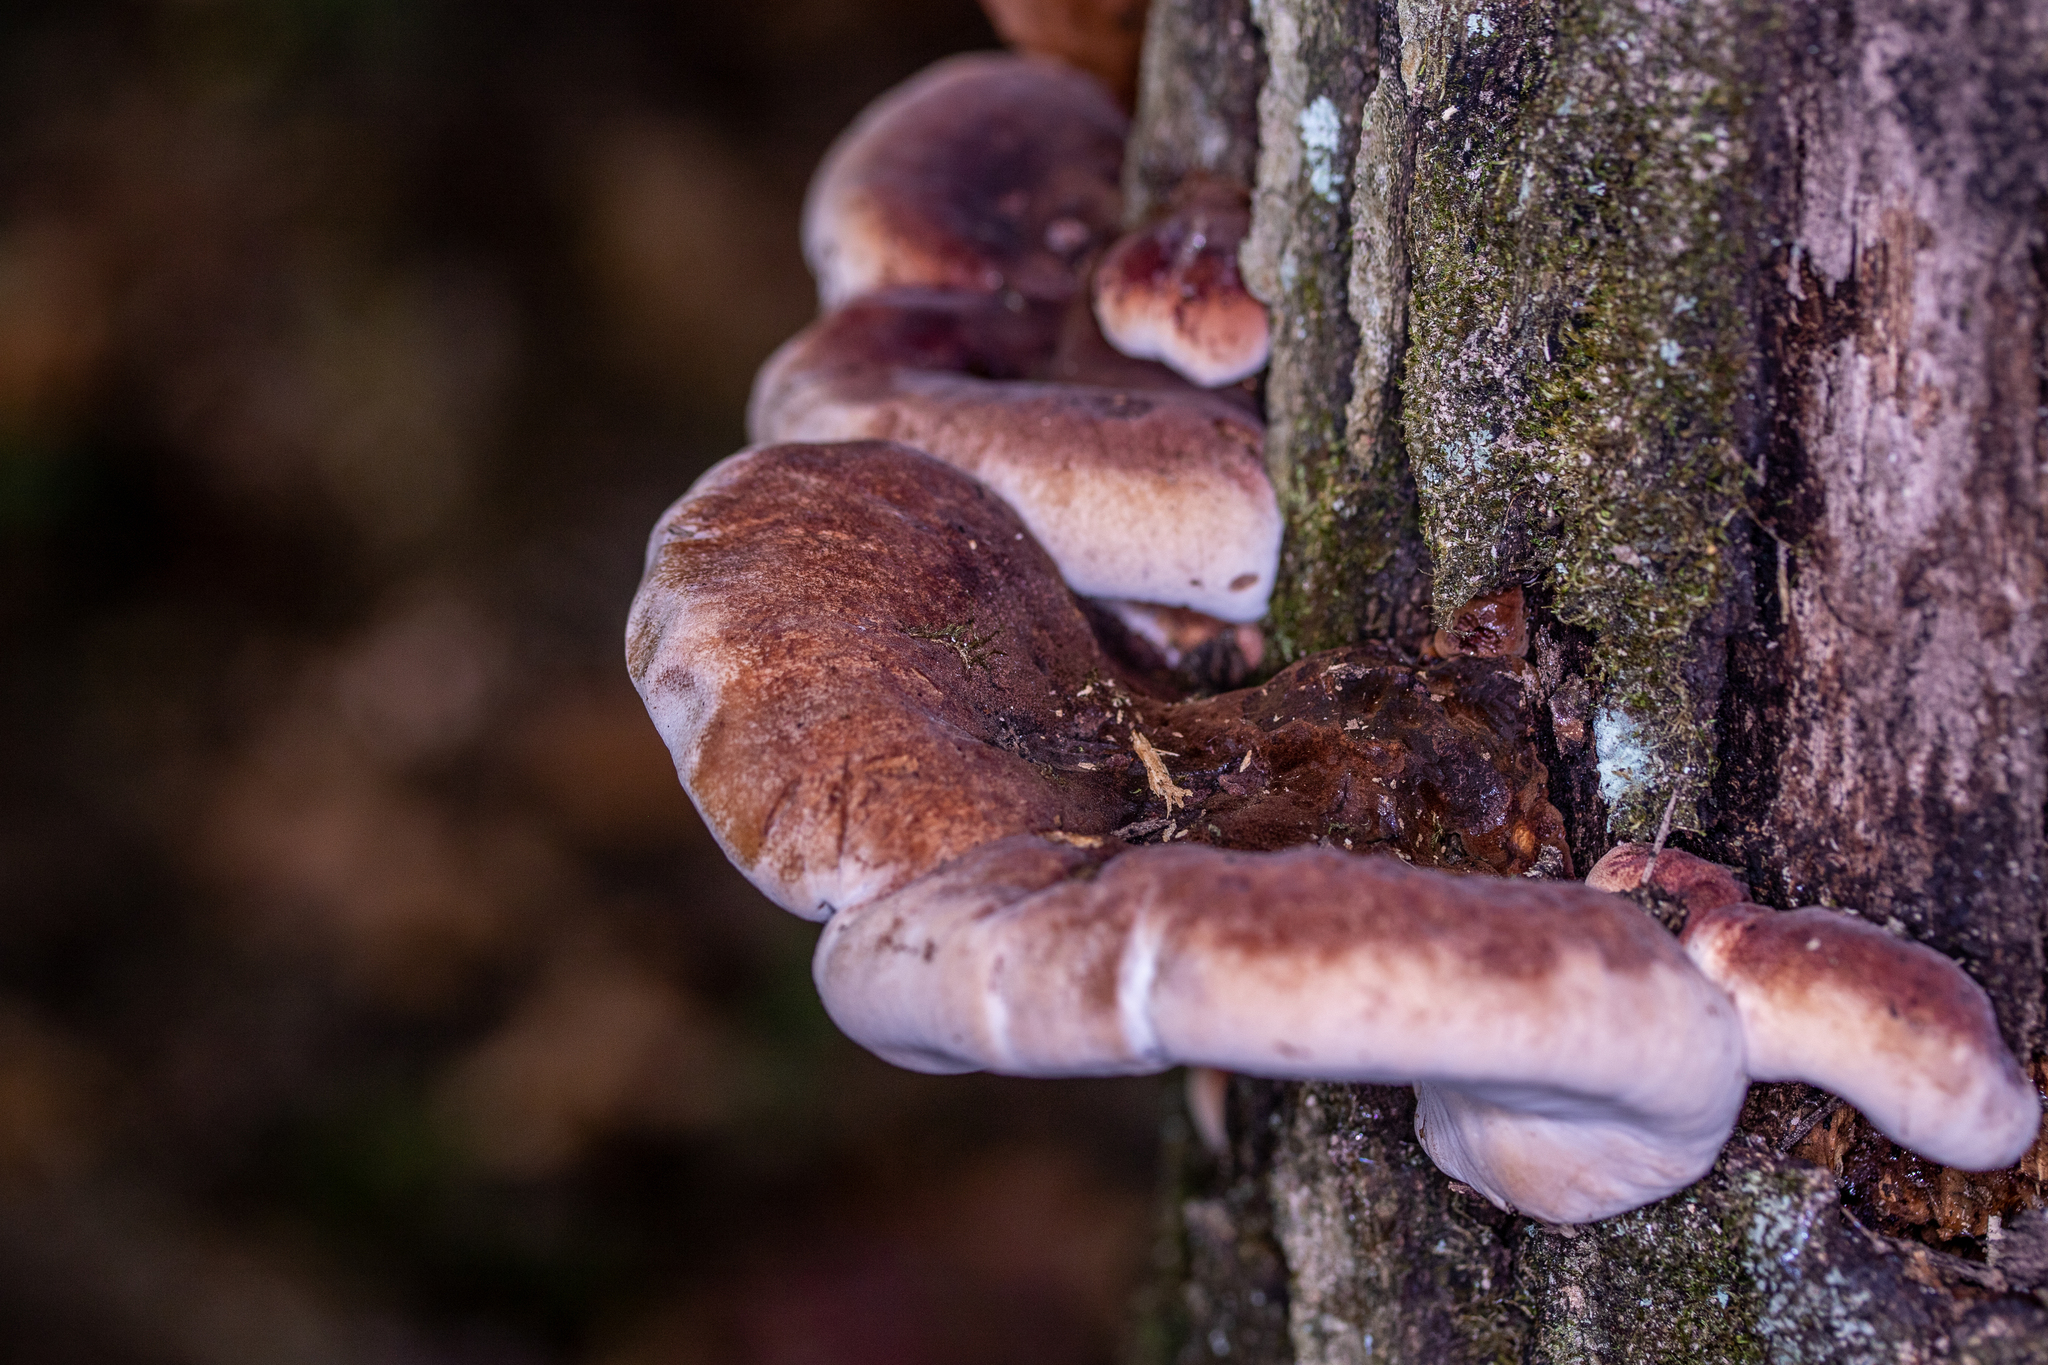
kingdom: Fungi
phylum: Basidiomycota
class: Agaricomycetes
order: Polyporales
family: Ischnodermataceae
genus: Ischnoderma
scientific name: Ischnoderma resinosum
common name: Resinous polypore
